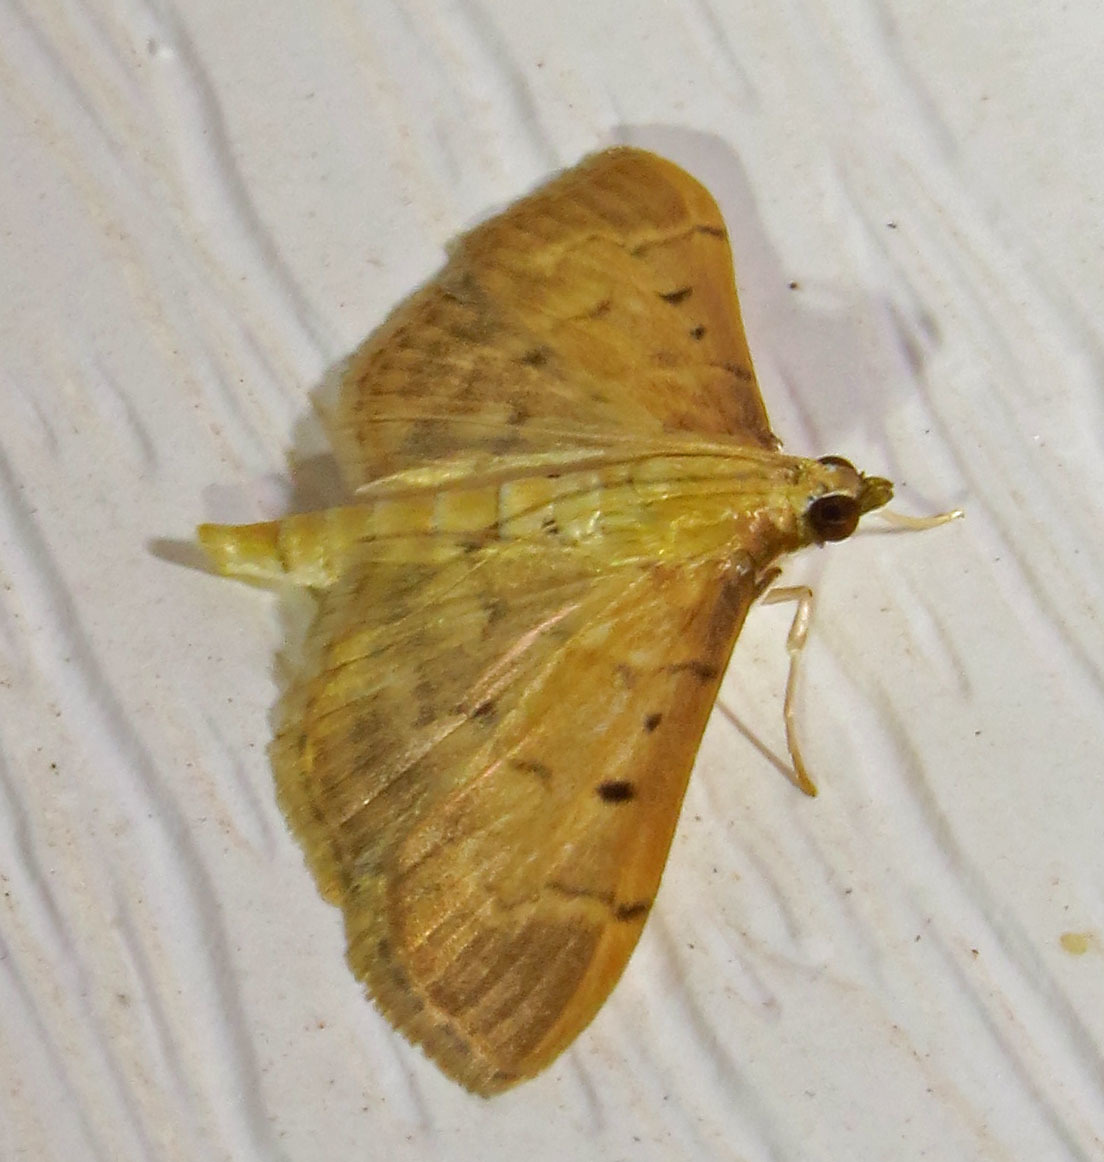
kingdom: Animalia
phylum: Arthropoda
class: Insecta
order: Lepidoptera
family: Crambidae
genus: Herpetogramma
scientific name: Herpetogramma bipunctalis
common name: Southern beet webworm
